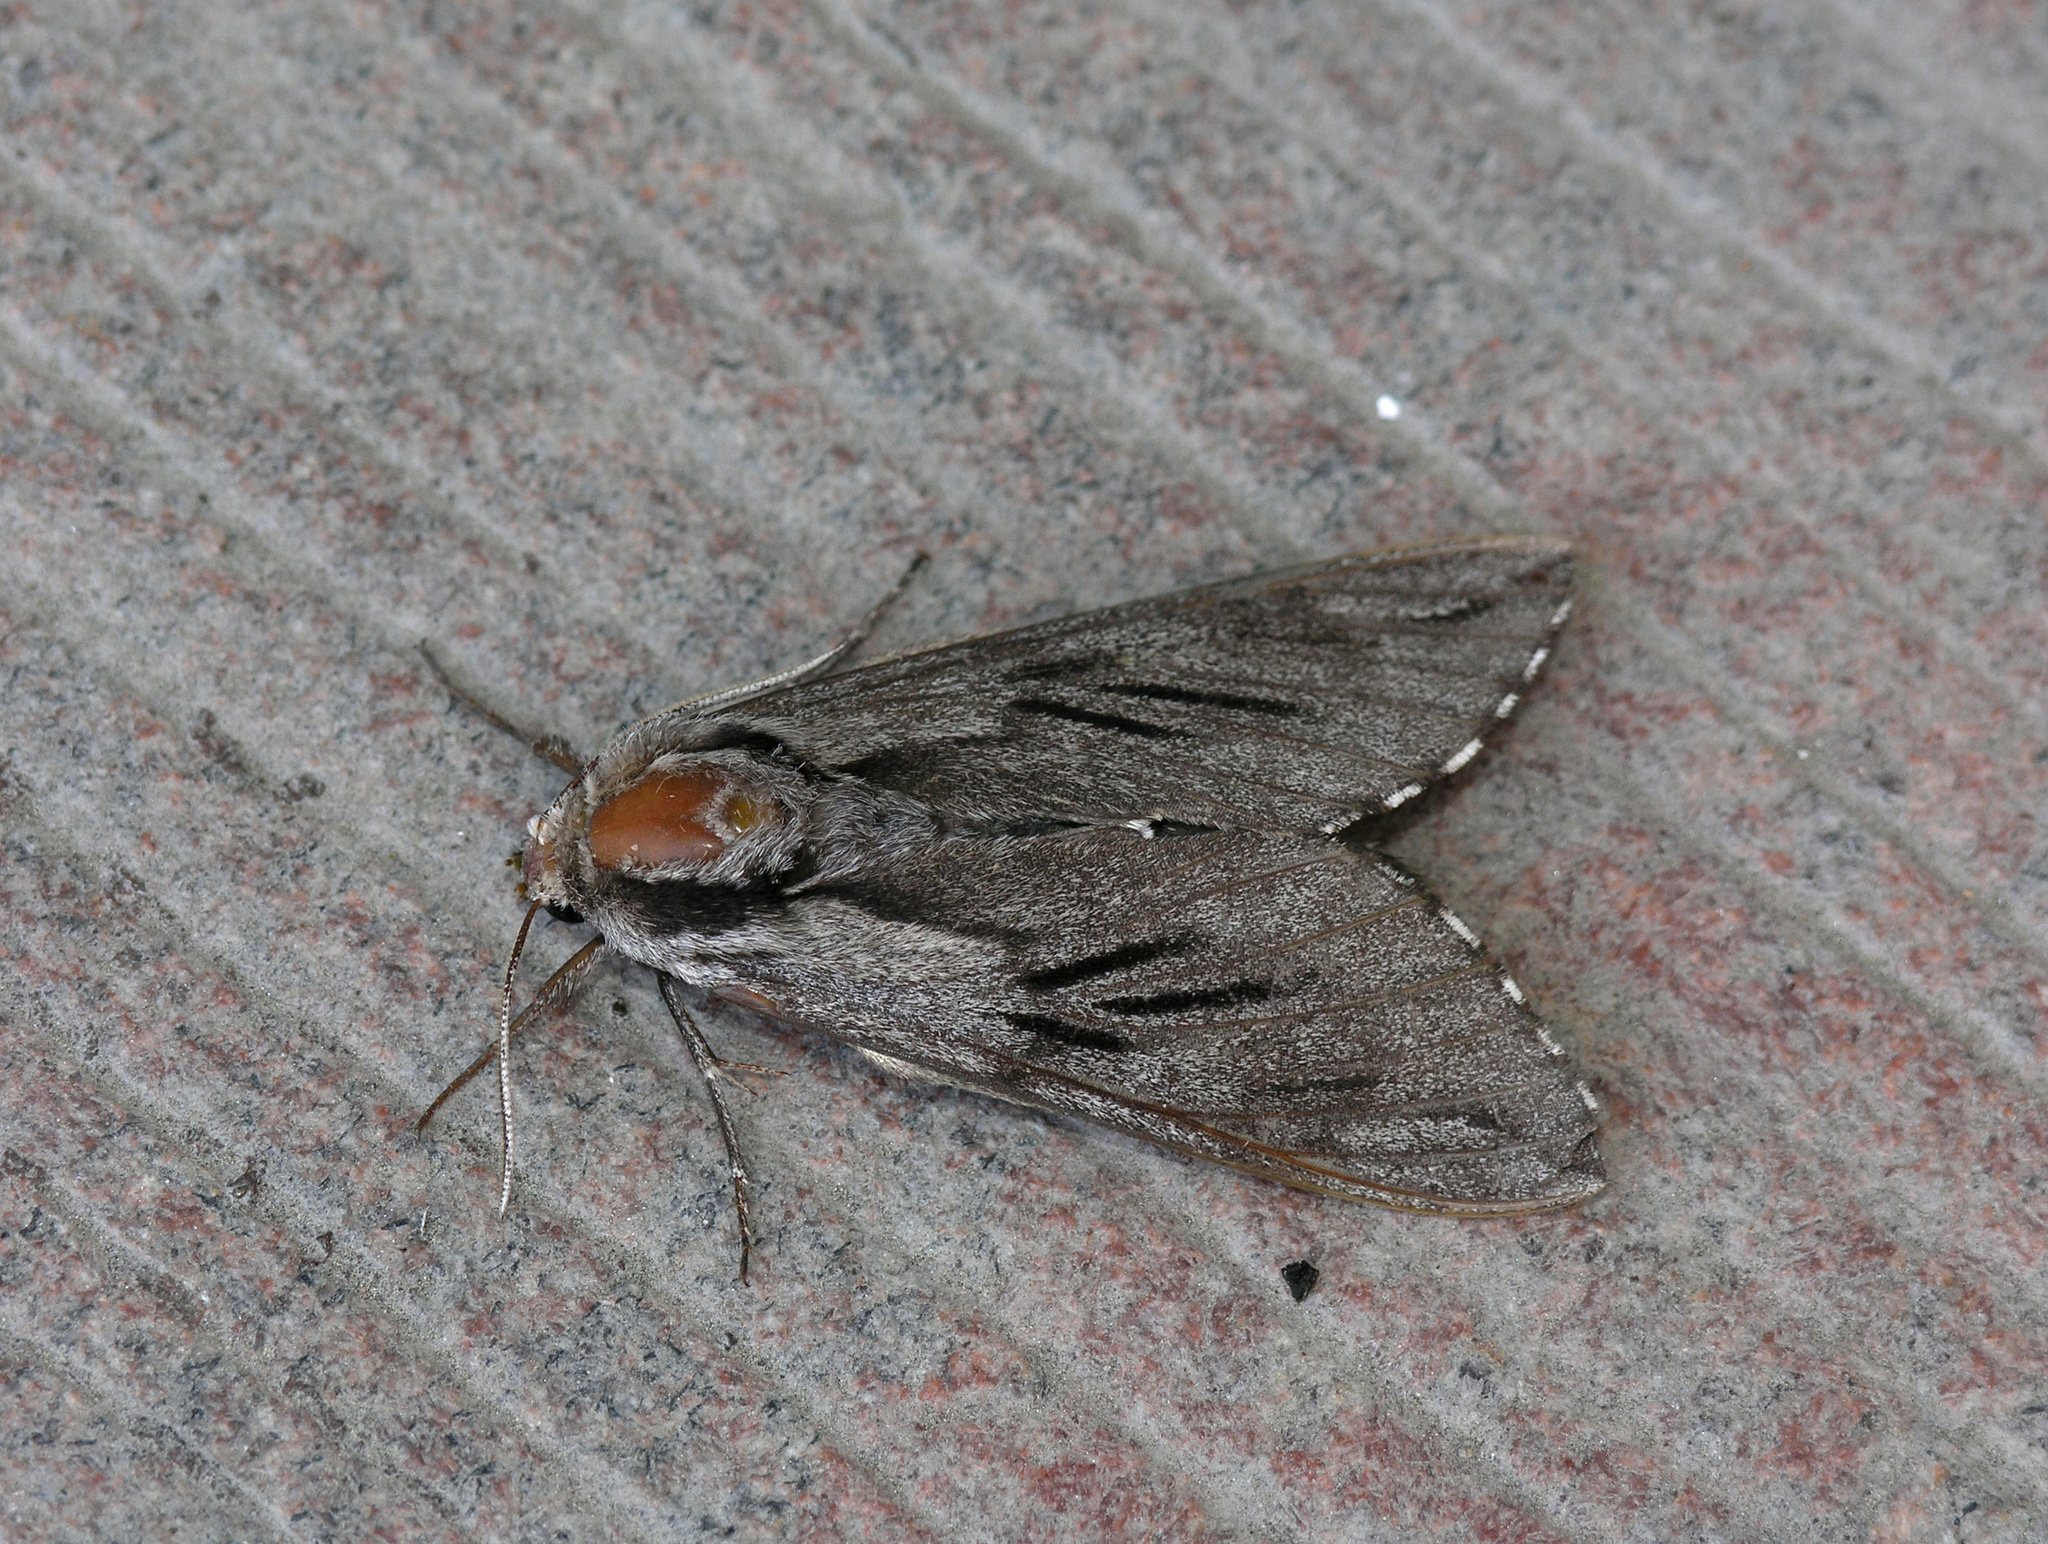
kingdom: Animalia
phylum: Arthropoda
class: Insecta
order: Lepidoptera
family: Sphingidae
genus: Sphinx
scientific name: Sphinx morio
